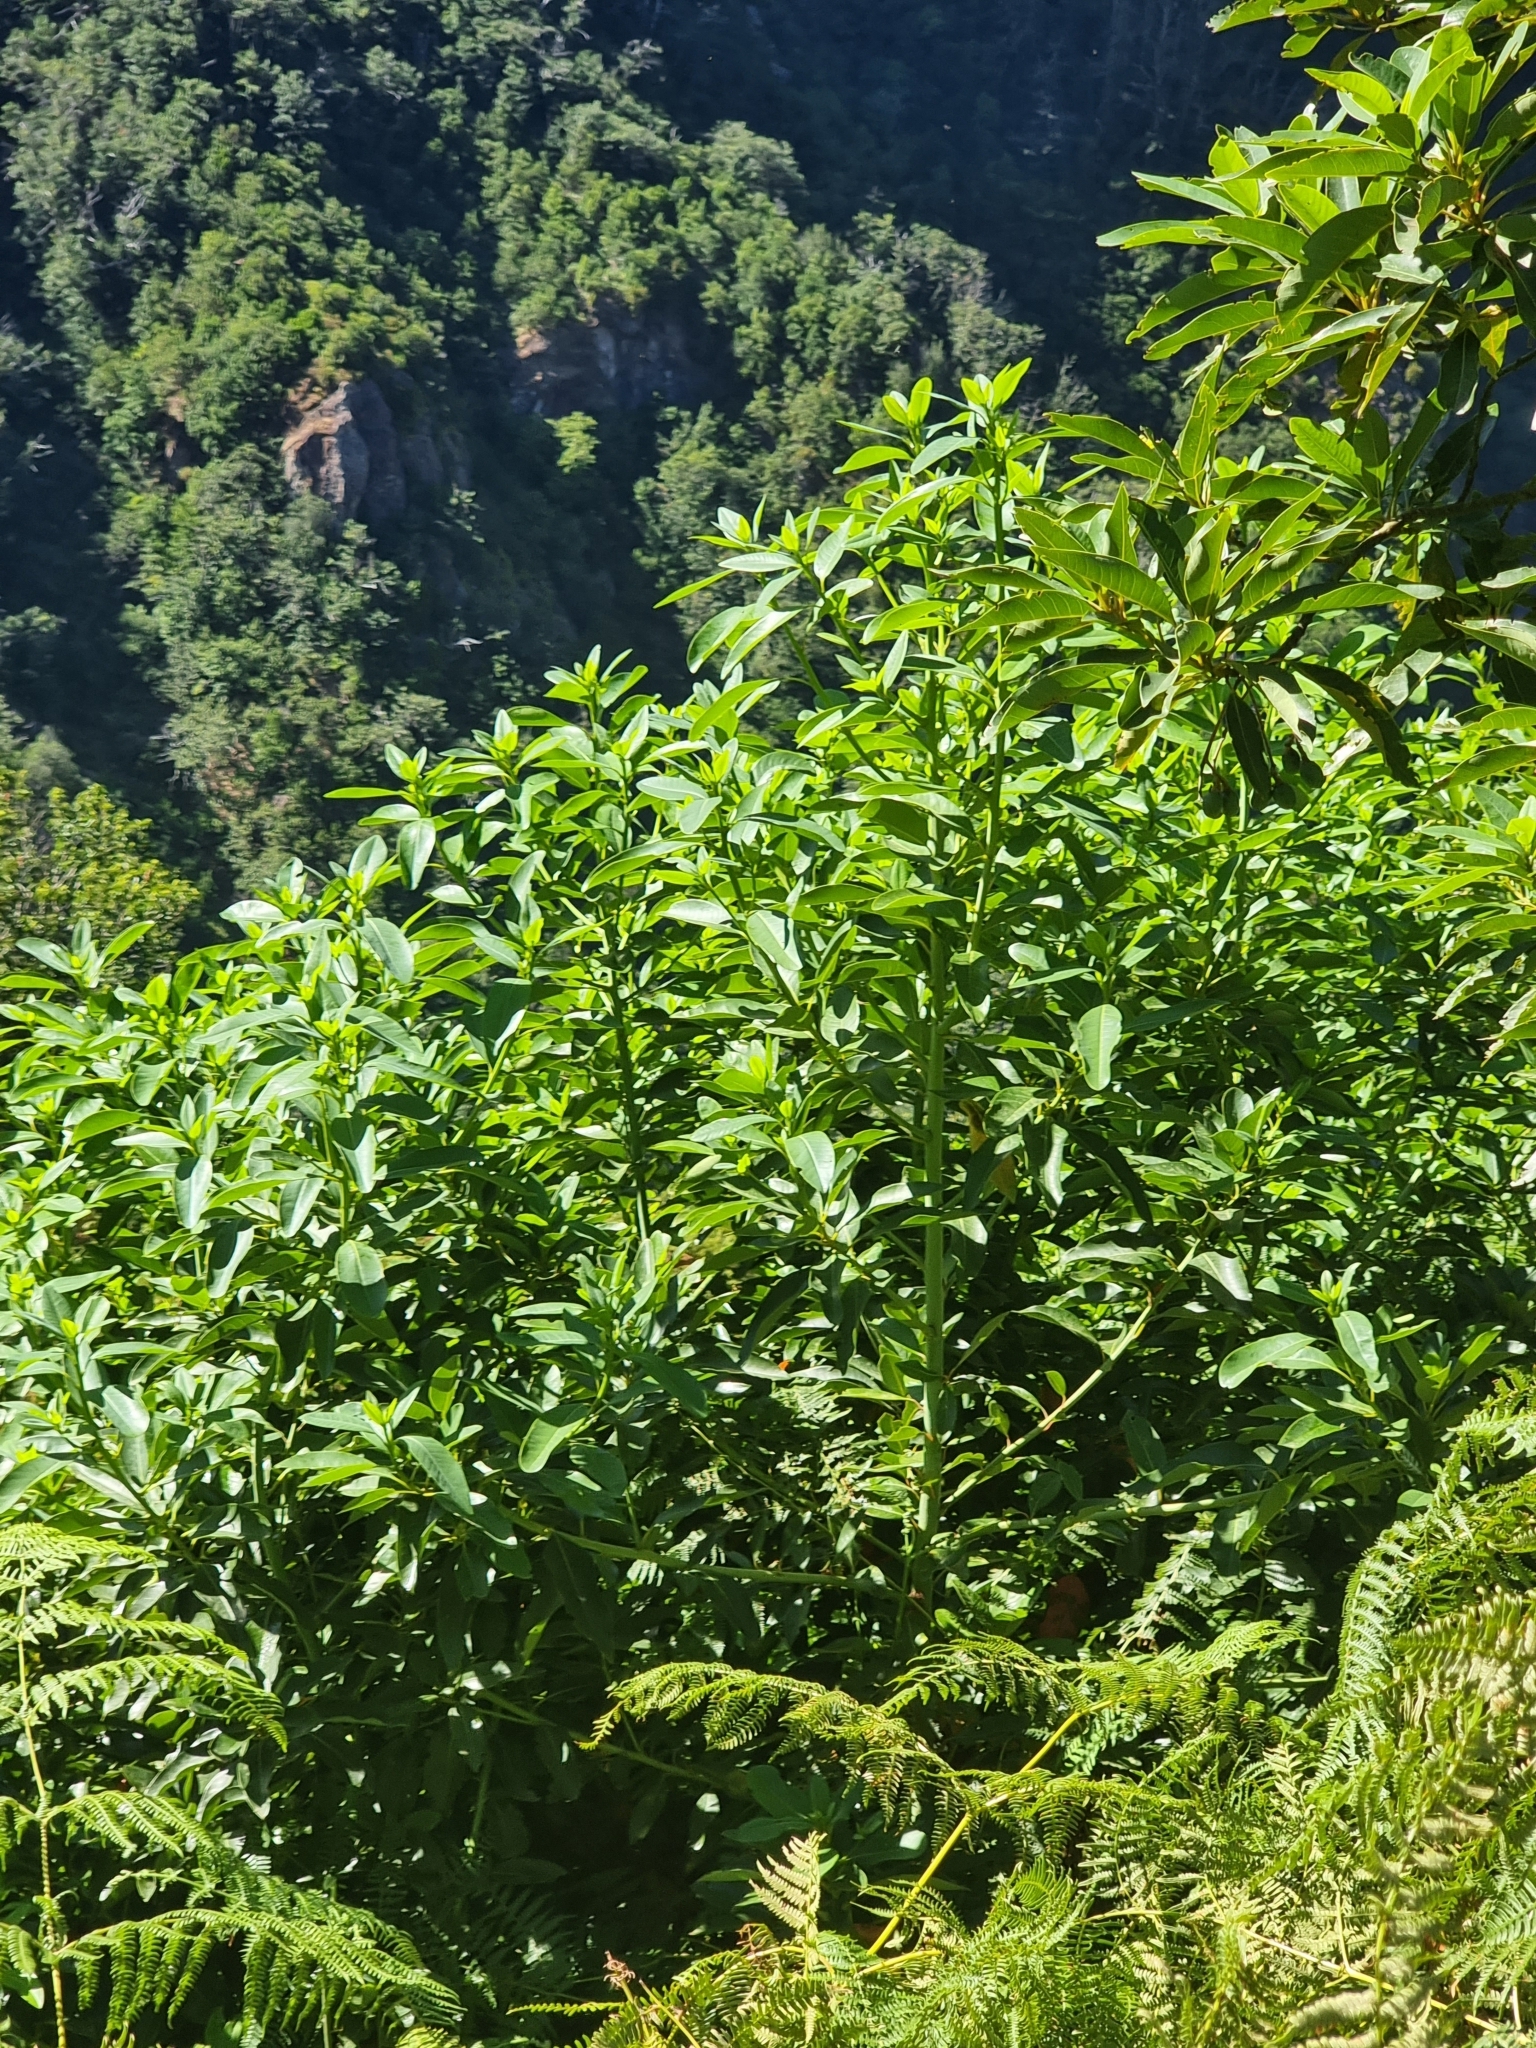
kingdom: Plantae
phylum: Tracheophyta
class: Magnoliopsida
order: Laurales
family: Lauraceae
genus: Persea
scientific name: Persea indica
